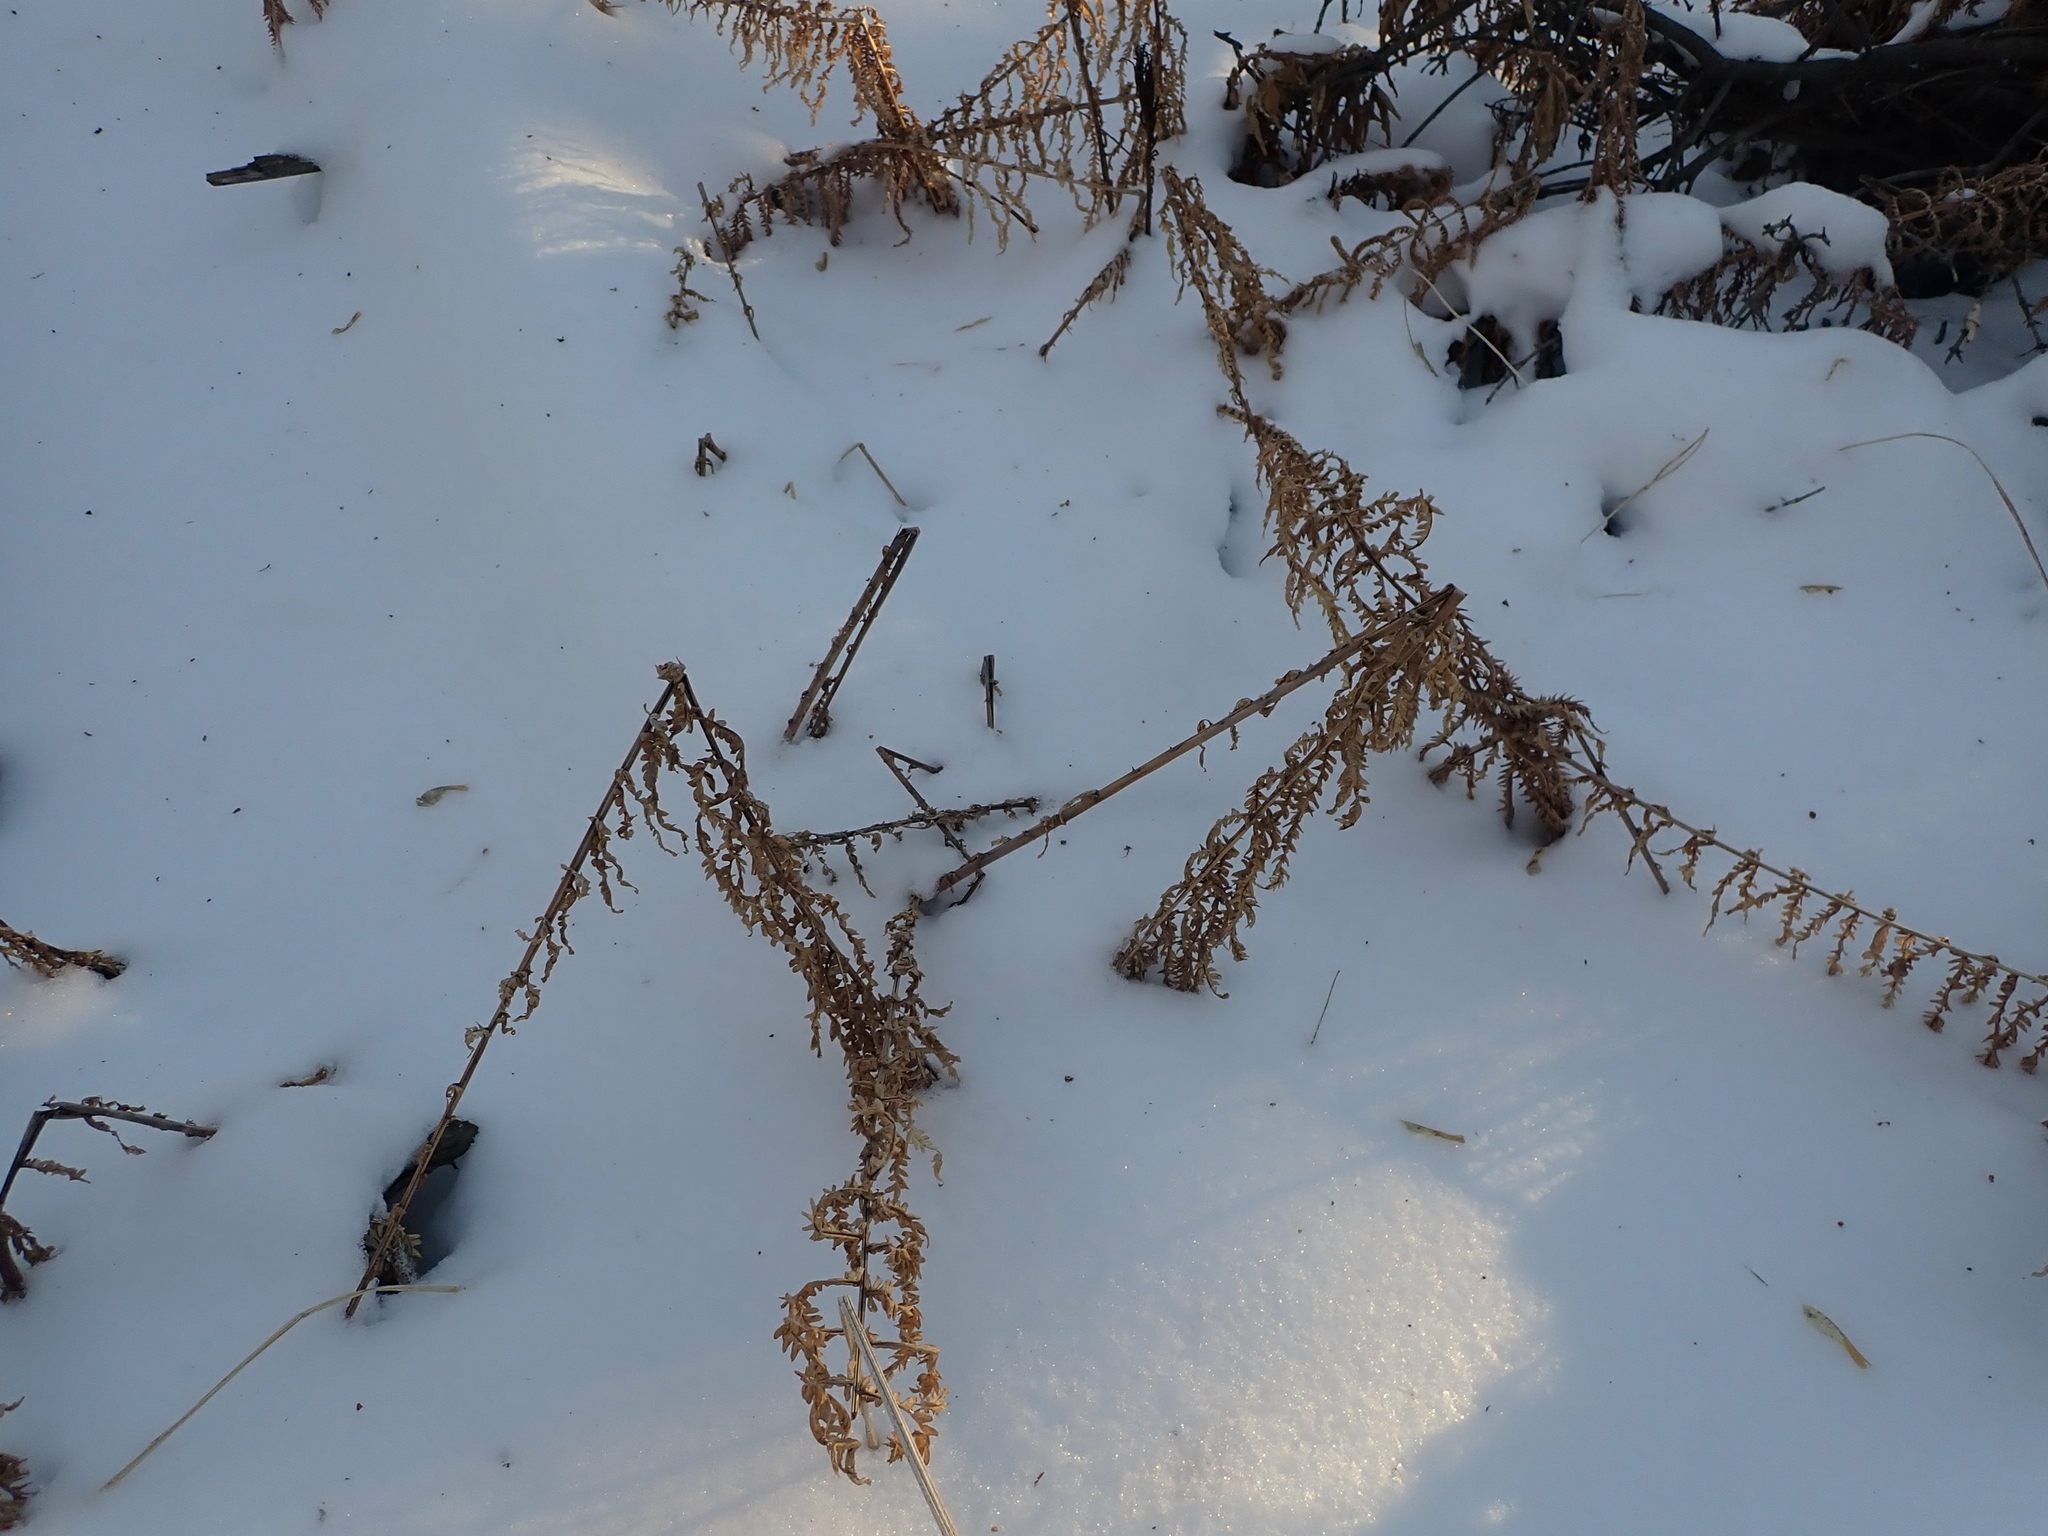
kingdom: Plantae
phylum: Tracheophyta
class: Polypodiopsida
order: Polypodiales
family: Onocleaceae
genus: Matteuccia
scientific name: Matteuccia struthiopteris
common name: Ostrich fern
